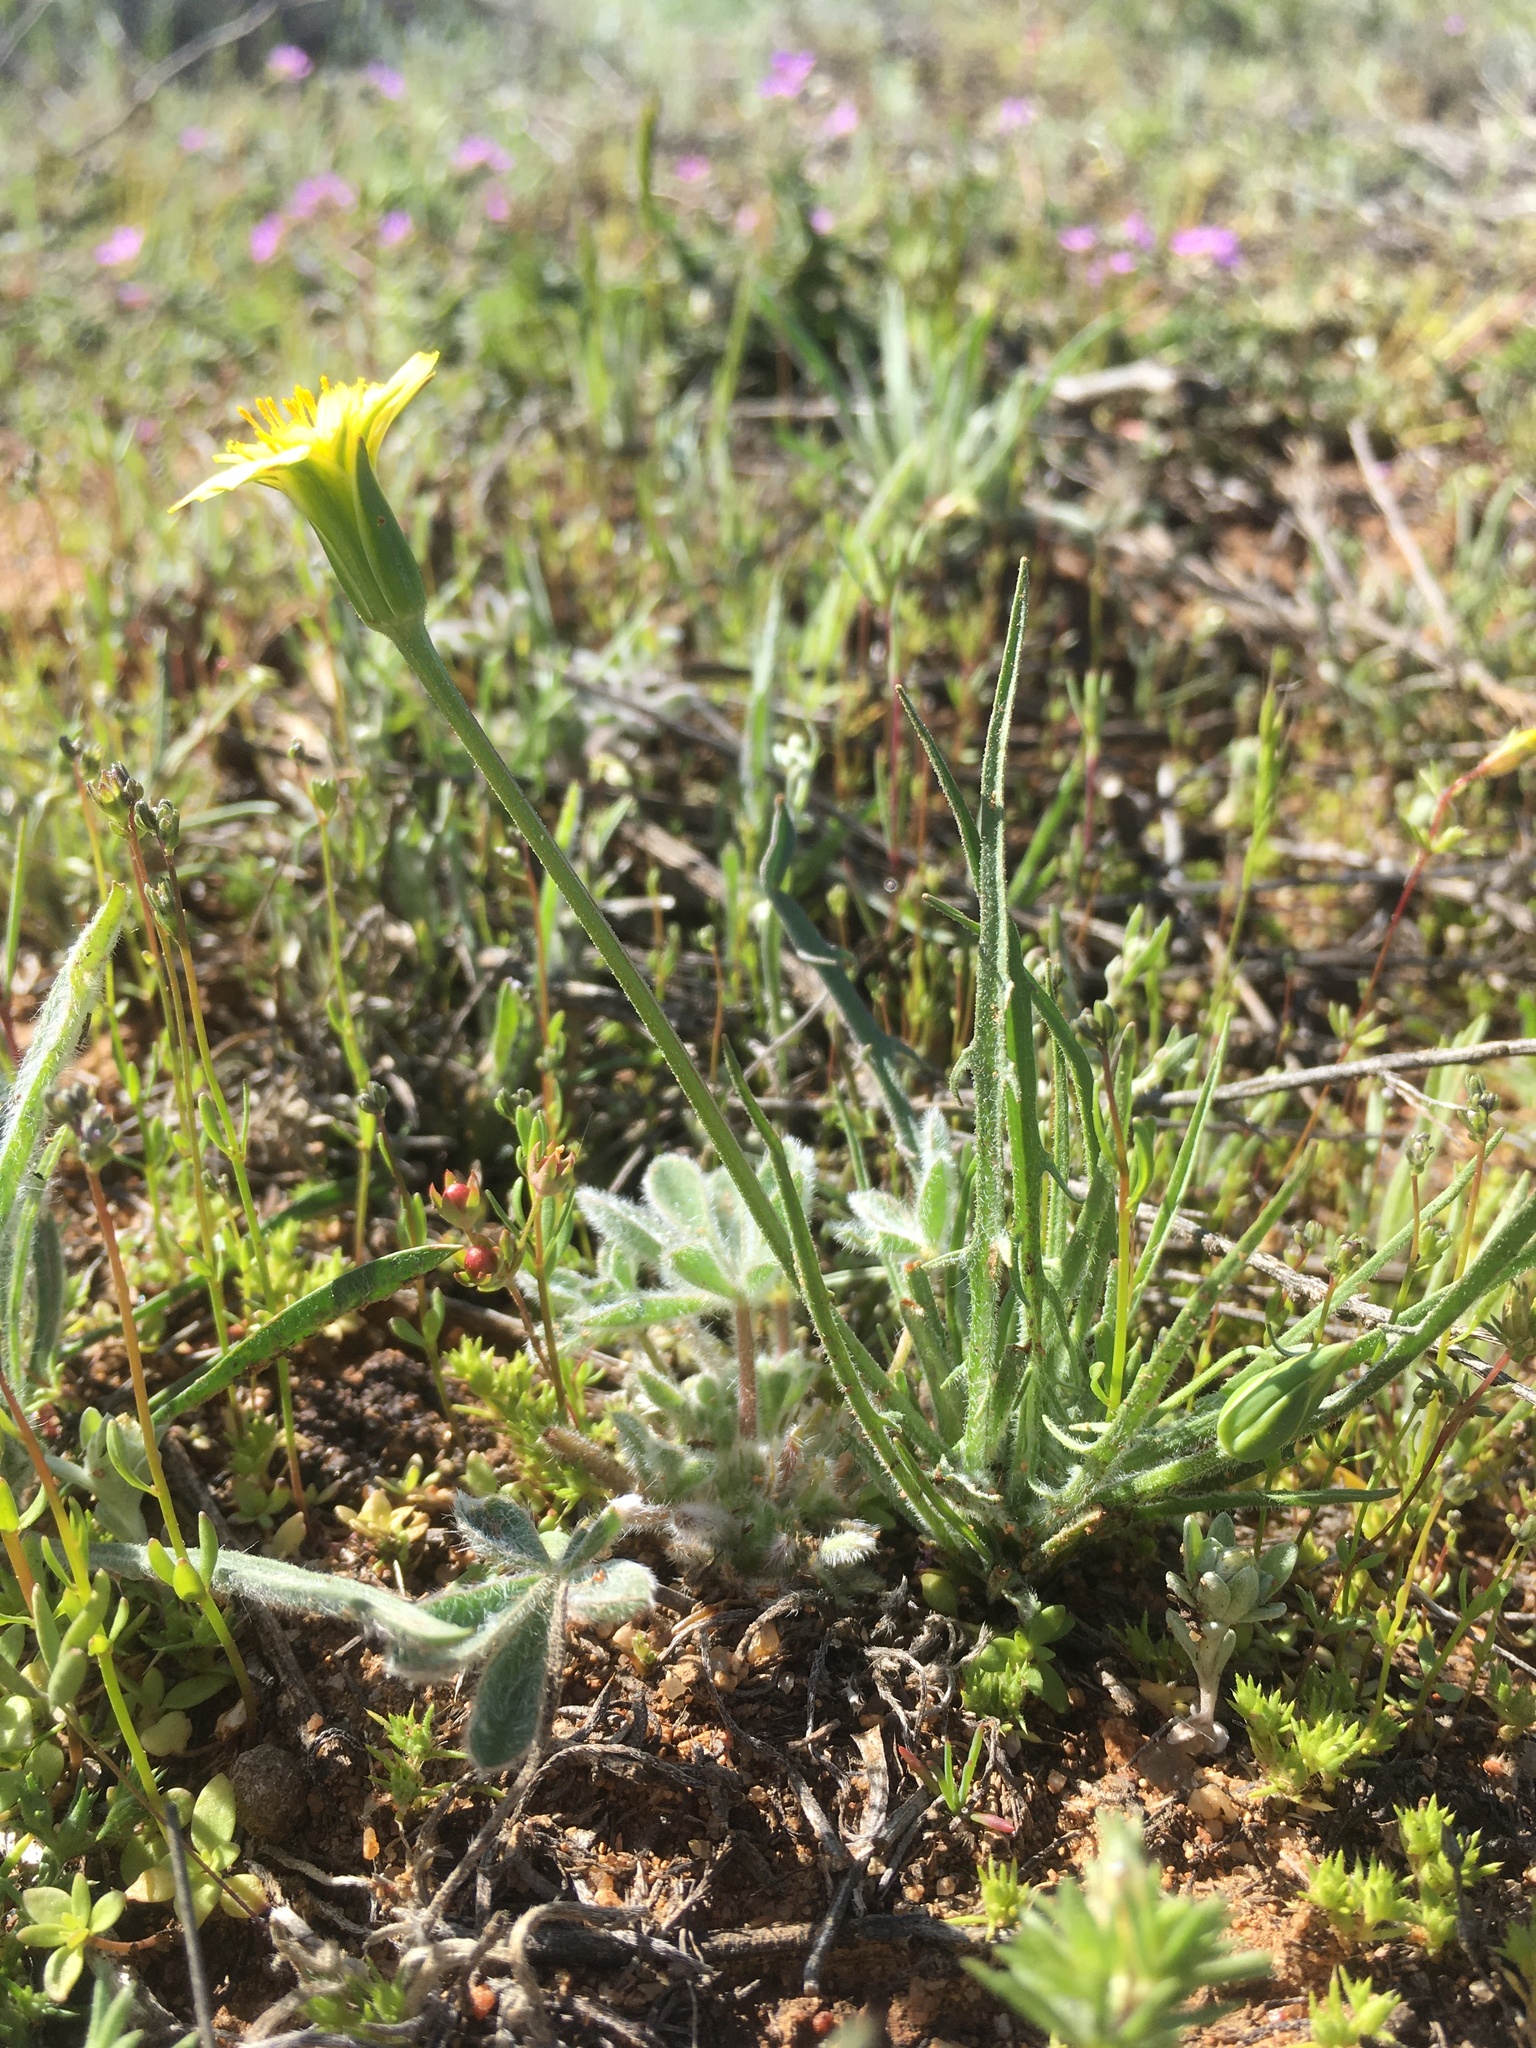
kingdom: Plantae
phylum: Tracheophyta
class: Magnoliopsida
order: Asterales
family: Asteraceae
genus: Microseris
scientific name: Microseris lindleyi
